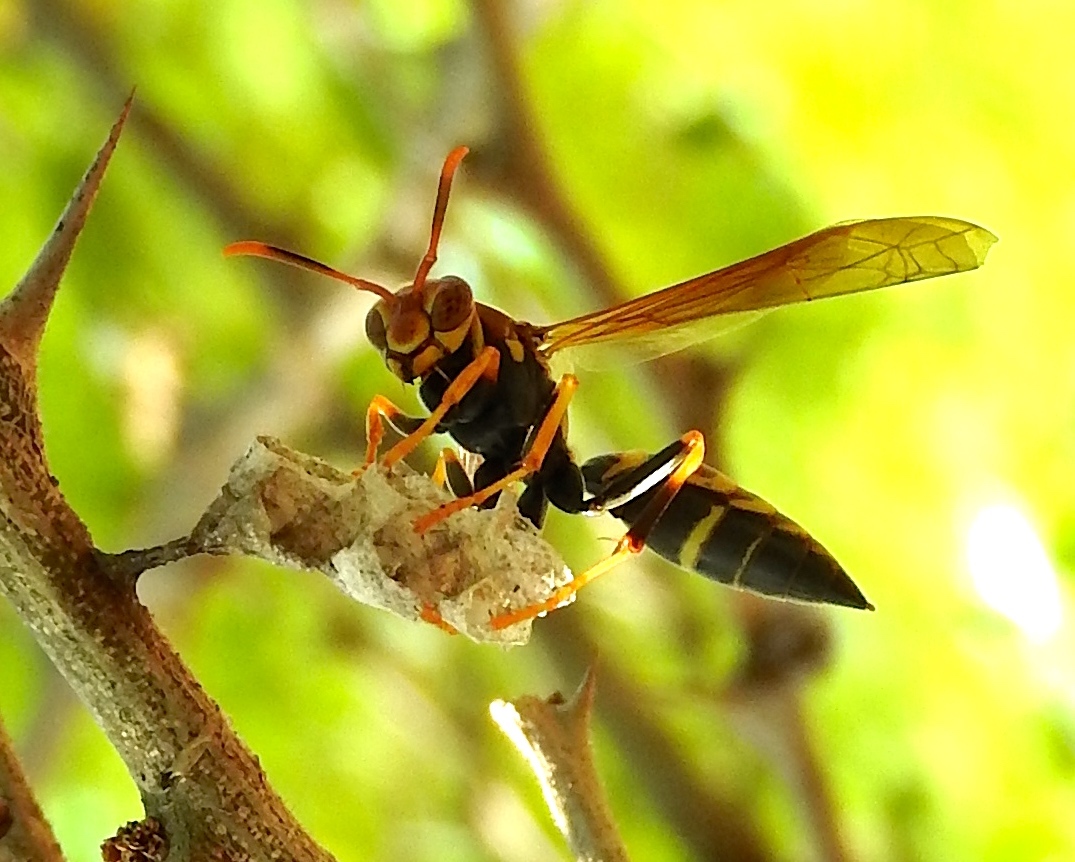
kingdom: Animalia
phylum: Arthropoda
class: Insecta
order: Hymenoptera
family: Eumenidae
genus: Polistes
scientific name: Polistes instabilis
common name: Unstable paper wasp
